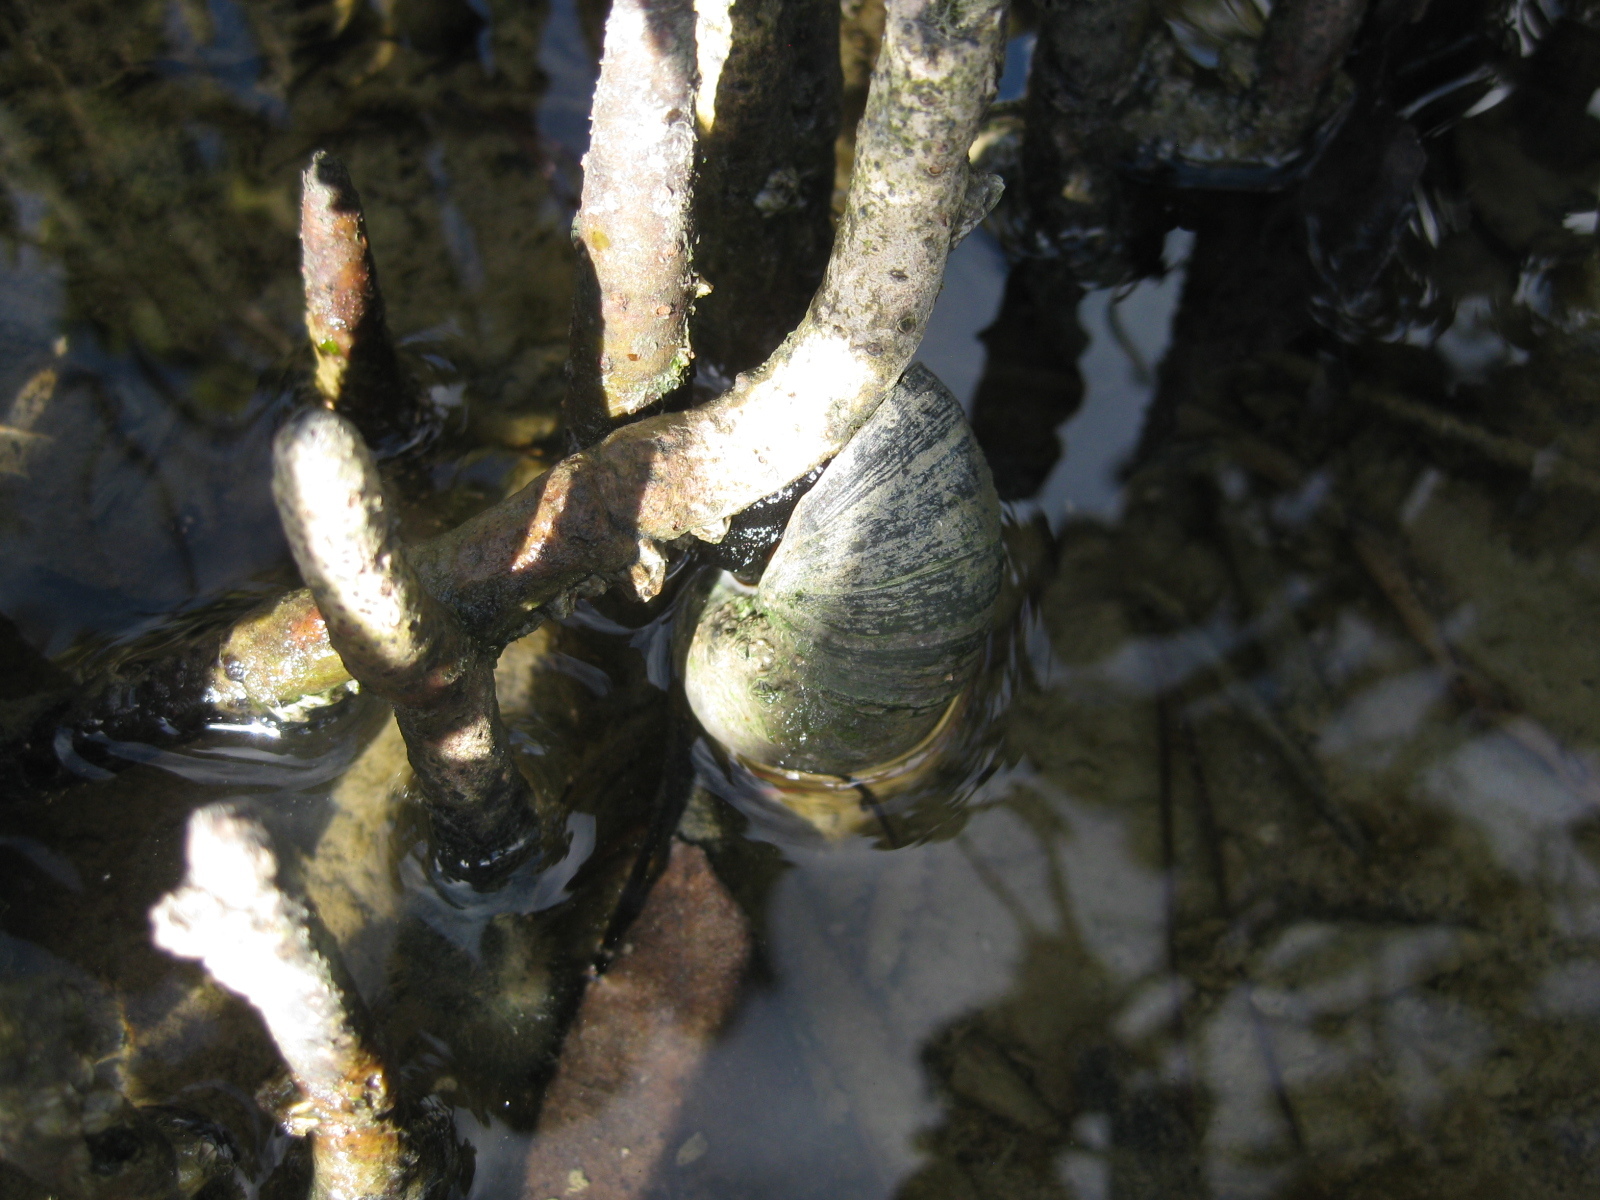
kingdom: Animalia
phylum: Mollusca
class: Gastropoda
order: Trochida
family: Turbinidae
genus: Lunella
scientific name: Lunella smaragda
